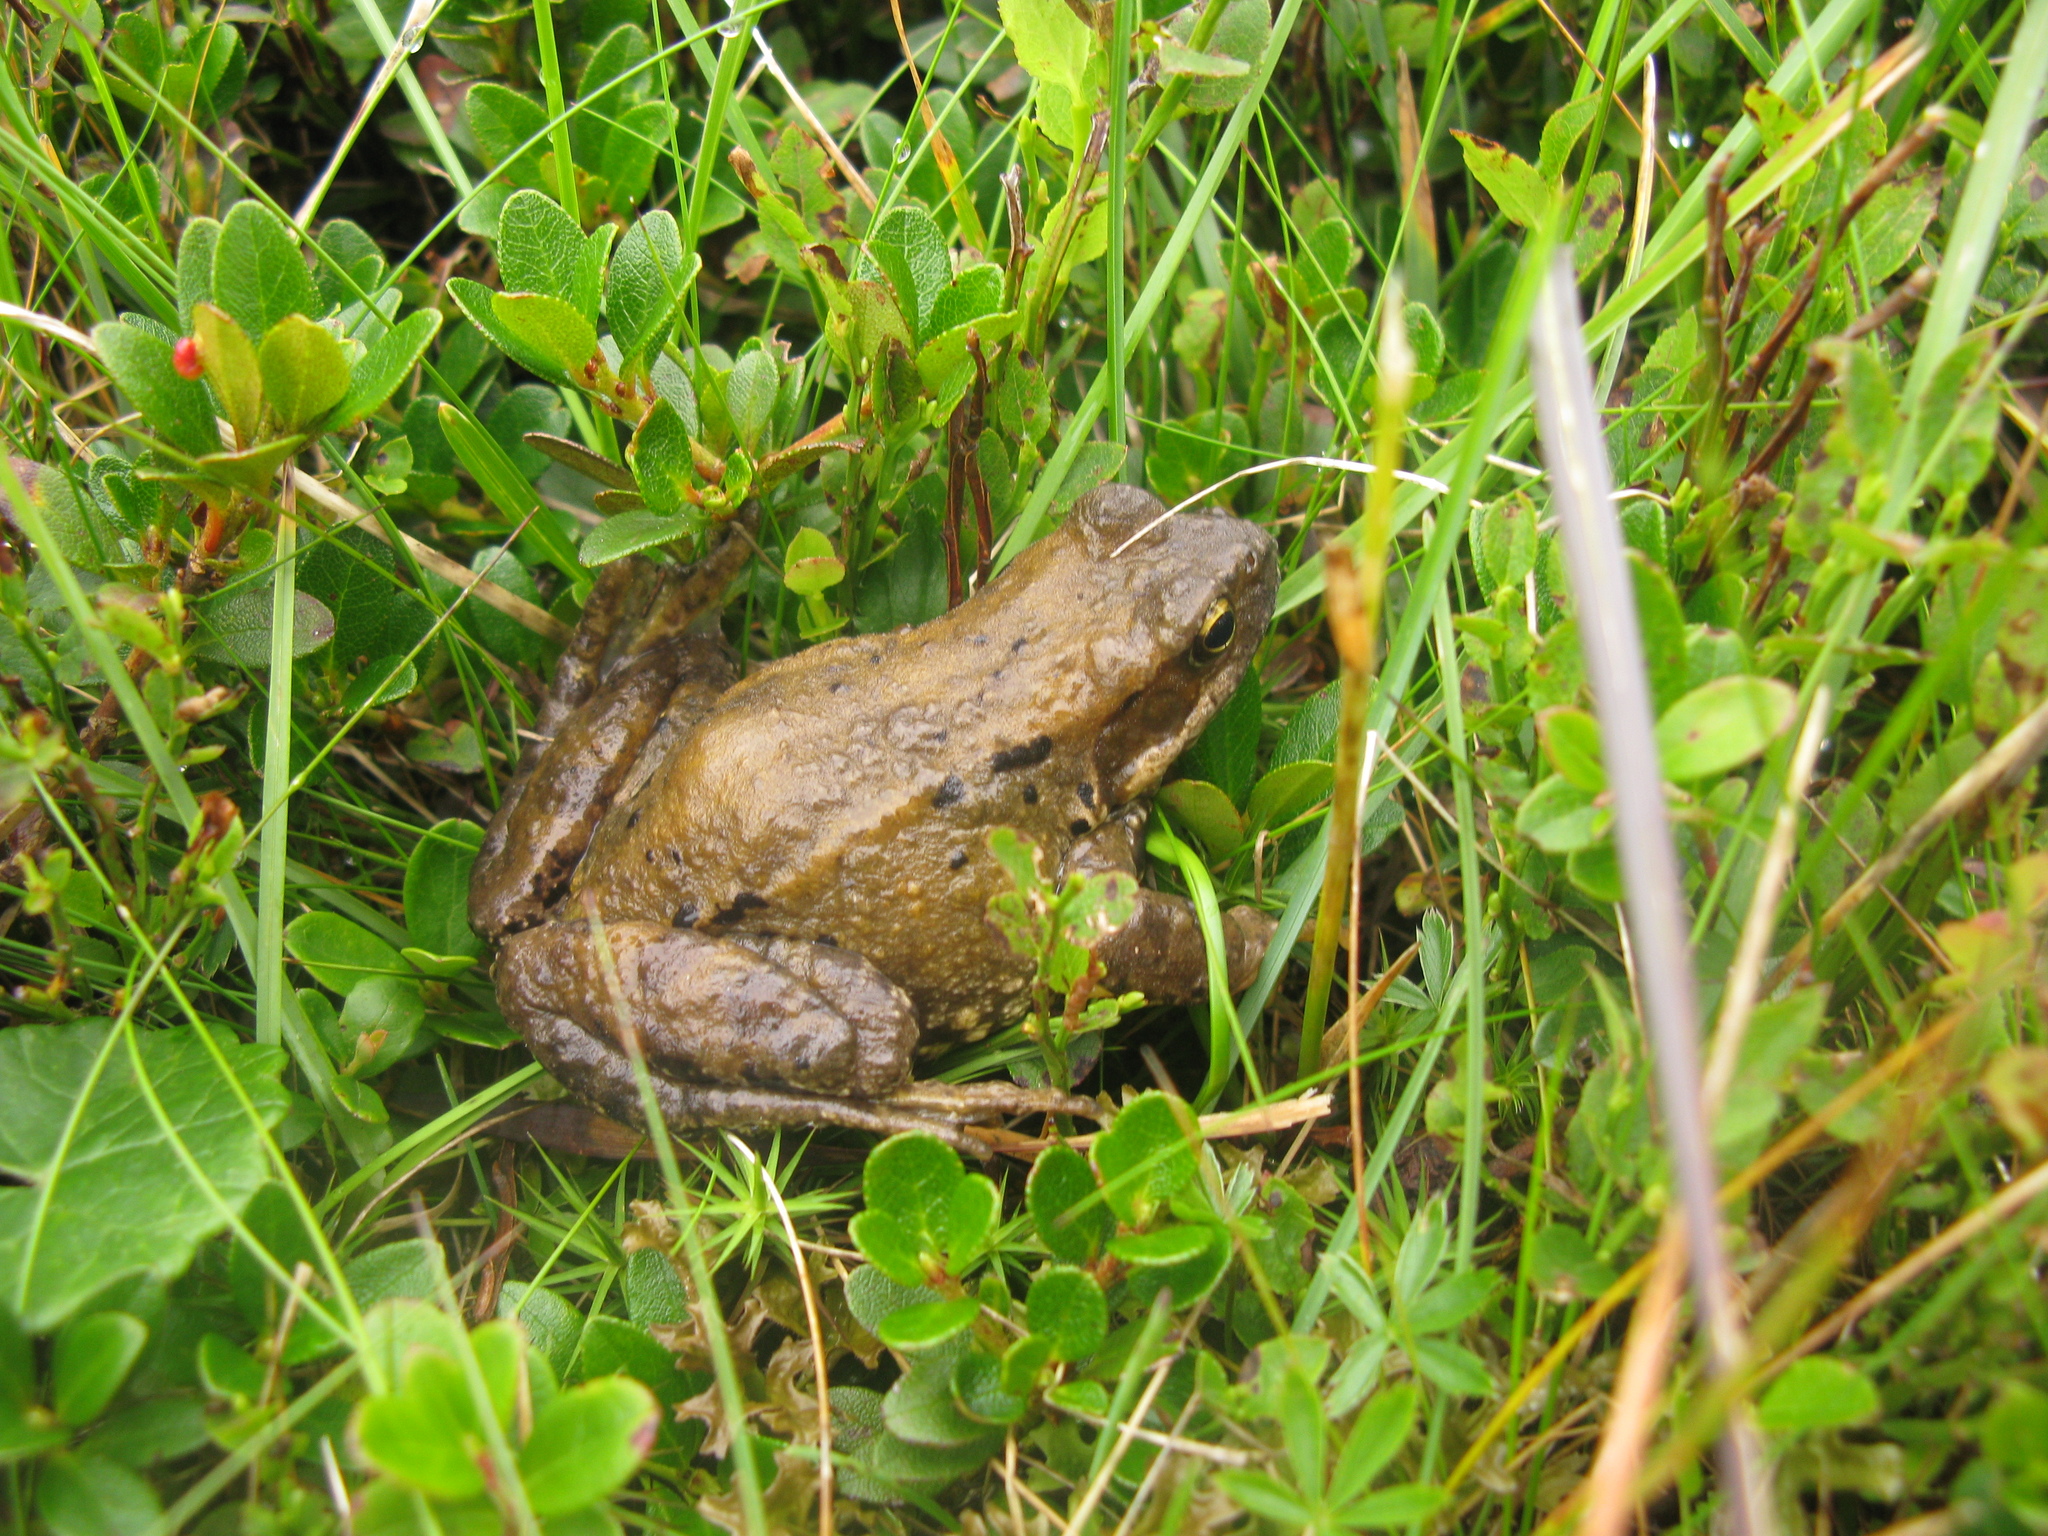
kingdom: Animalia
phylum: Chordata
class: Amphibia
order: Anura
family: Ranidae
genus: Rana
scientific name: Rana temporaria
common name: Common frog
